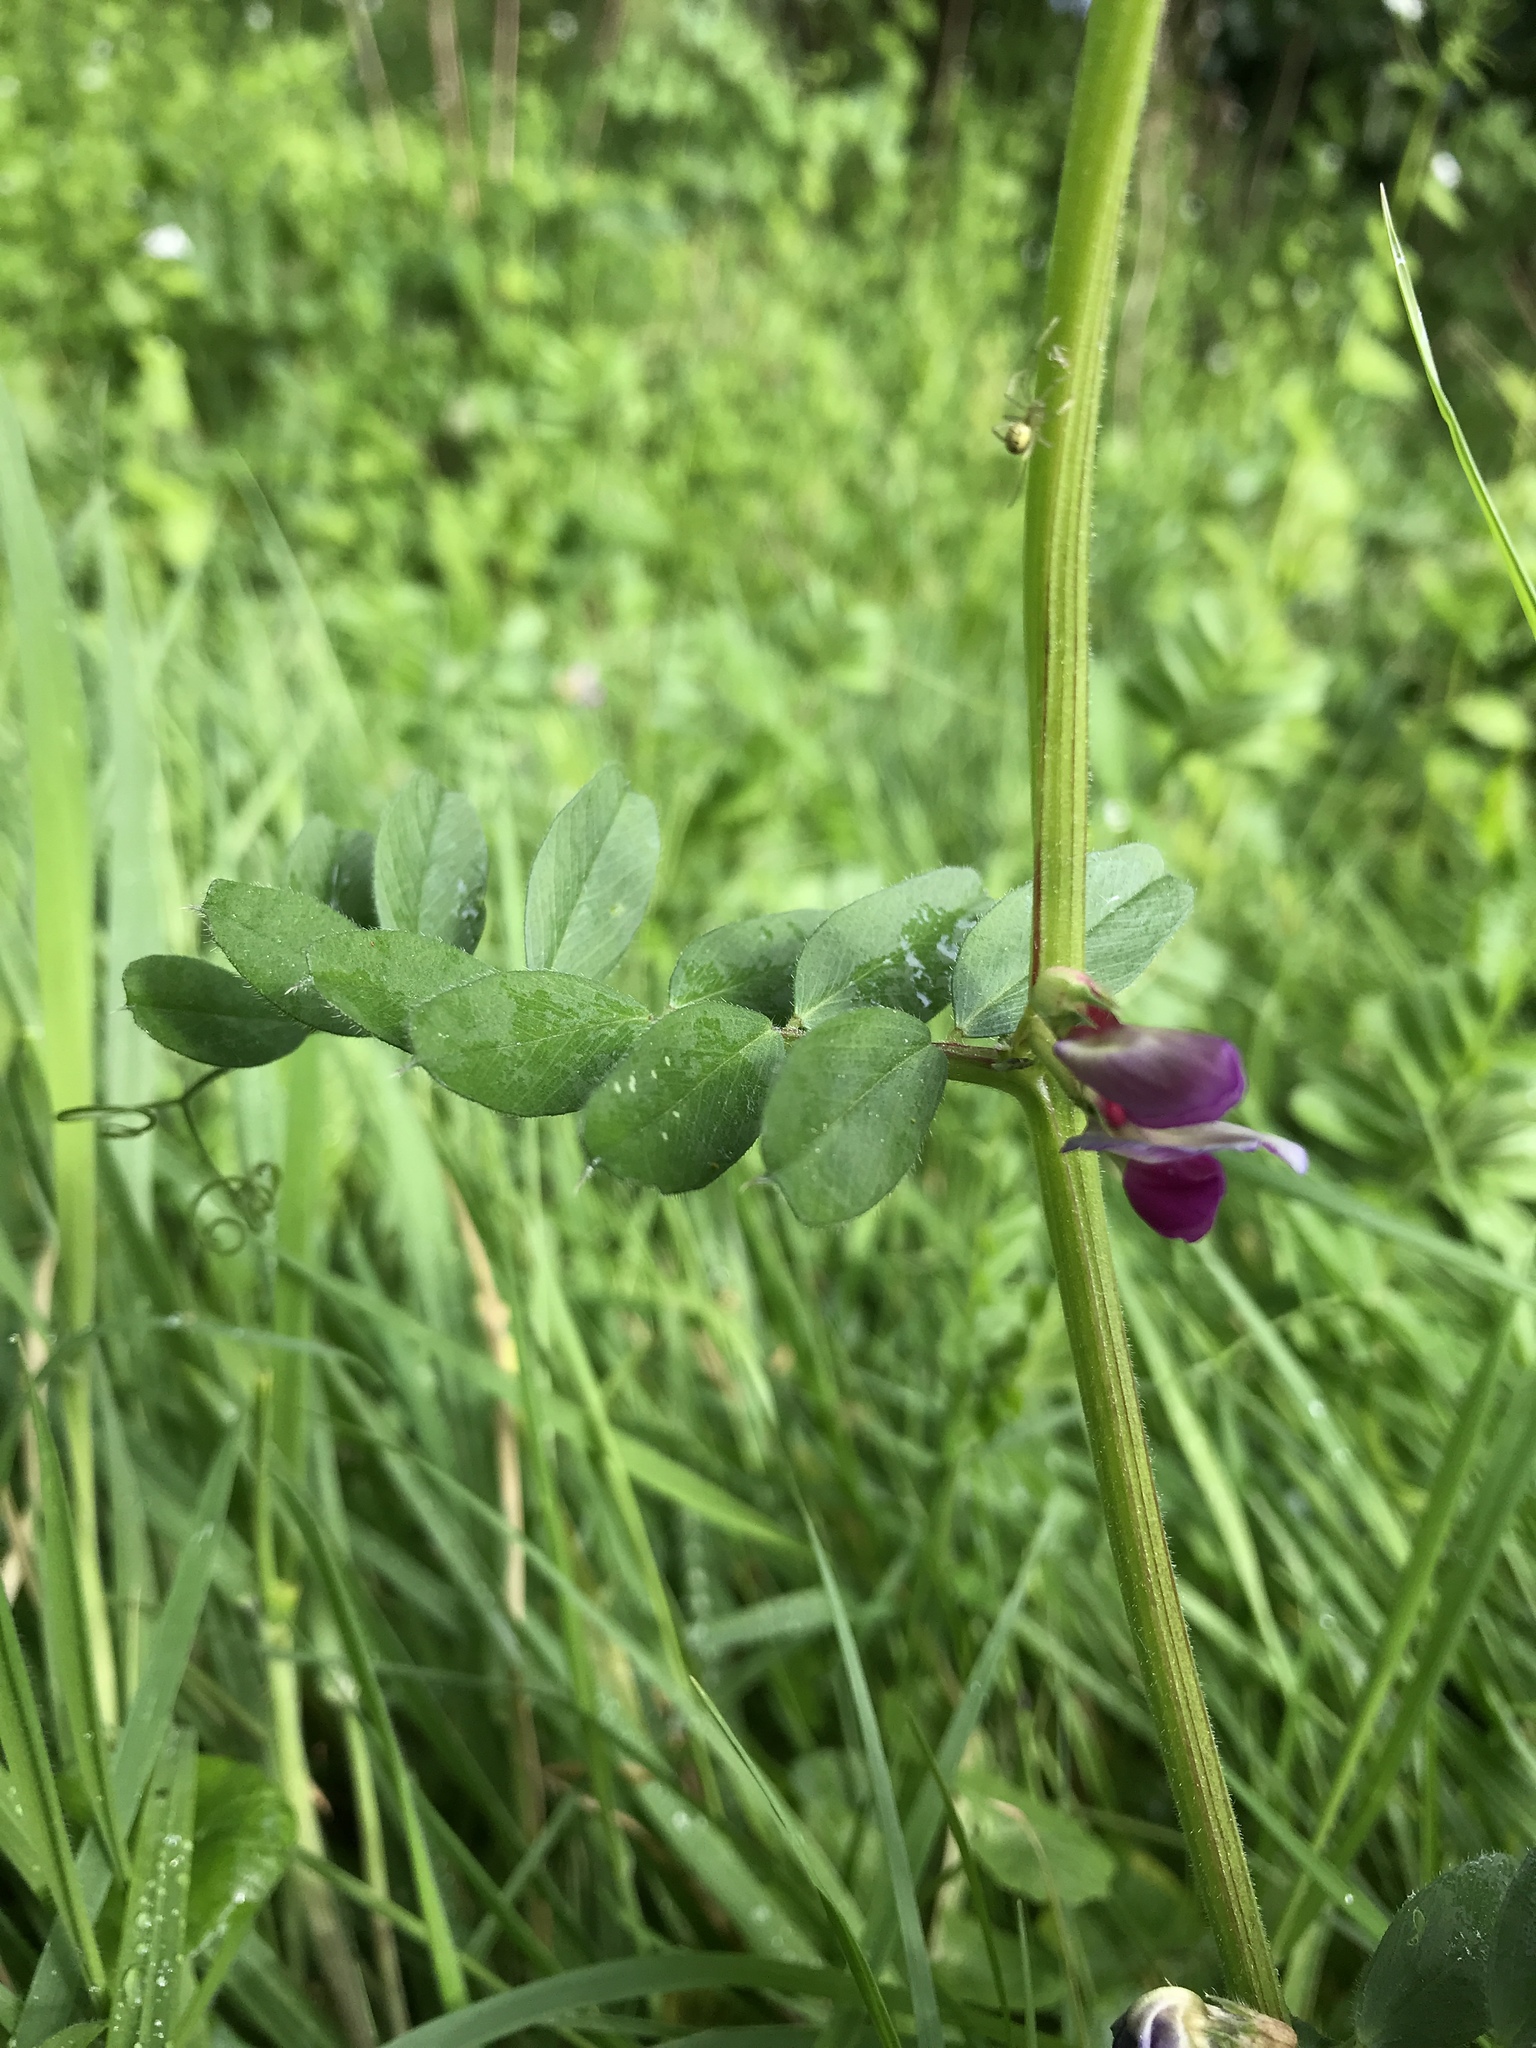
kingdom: Plantae
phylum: Tracheophyta
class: Magnoliopsida
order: Fabales
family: Fabaceae
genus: Vicia
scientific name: Vicia sativa
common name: Garden vetch
